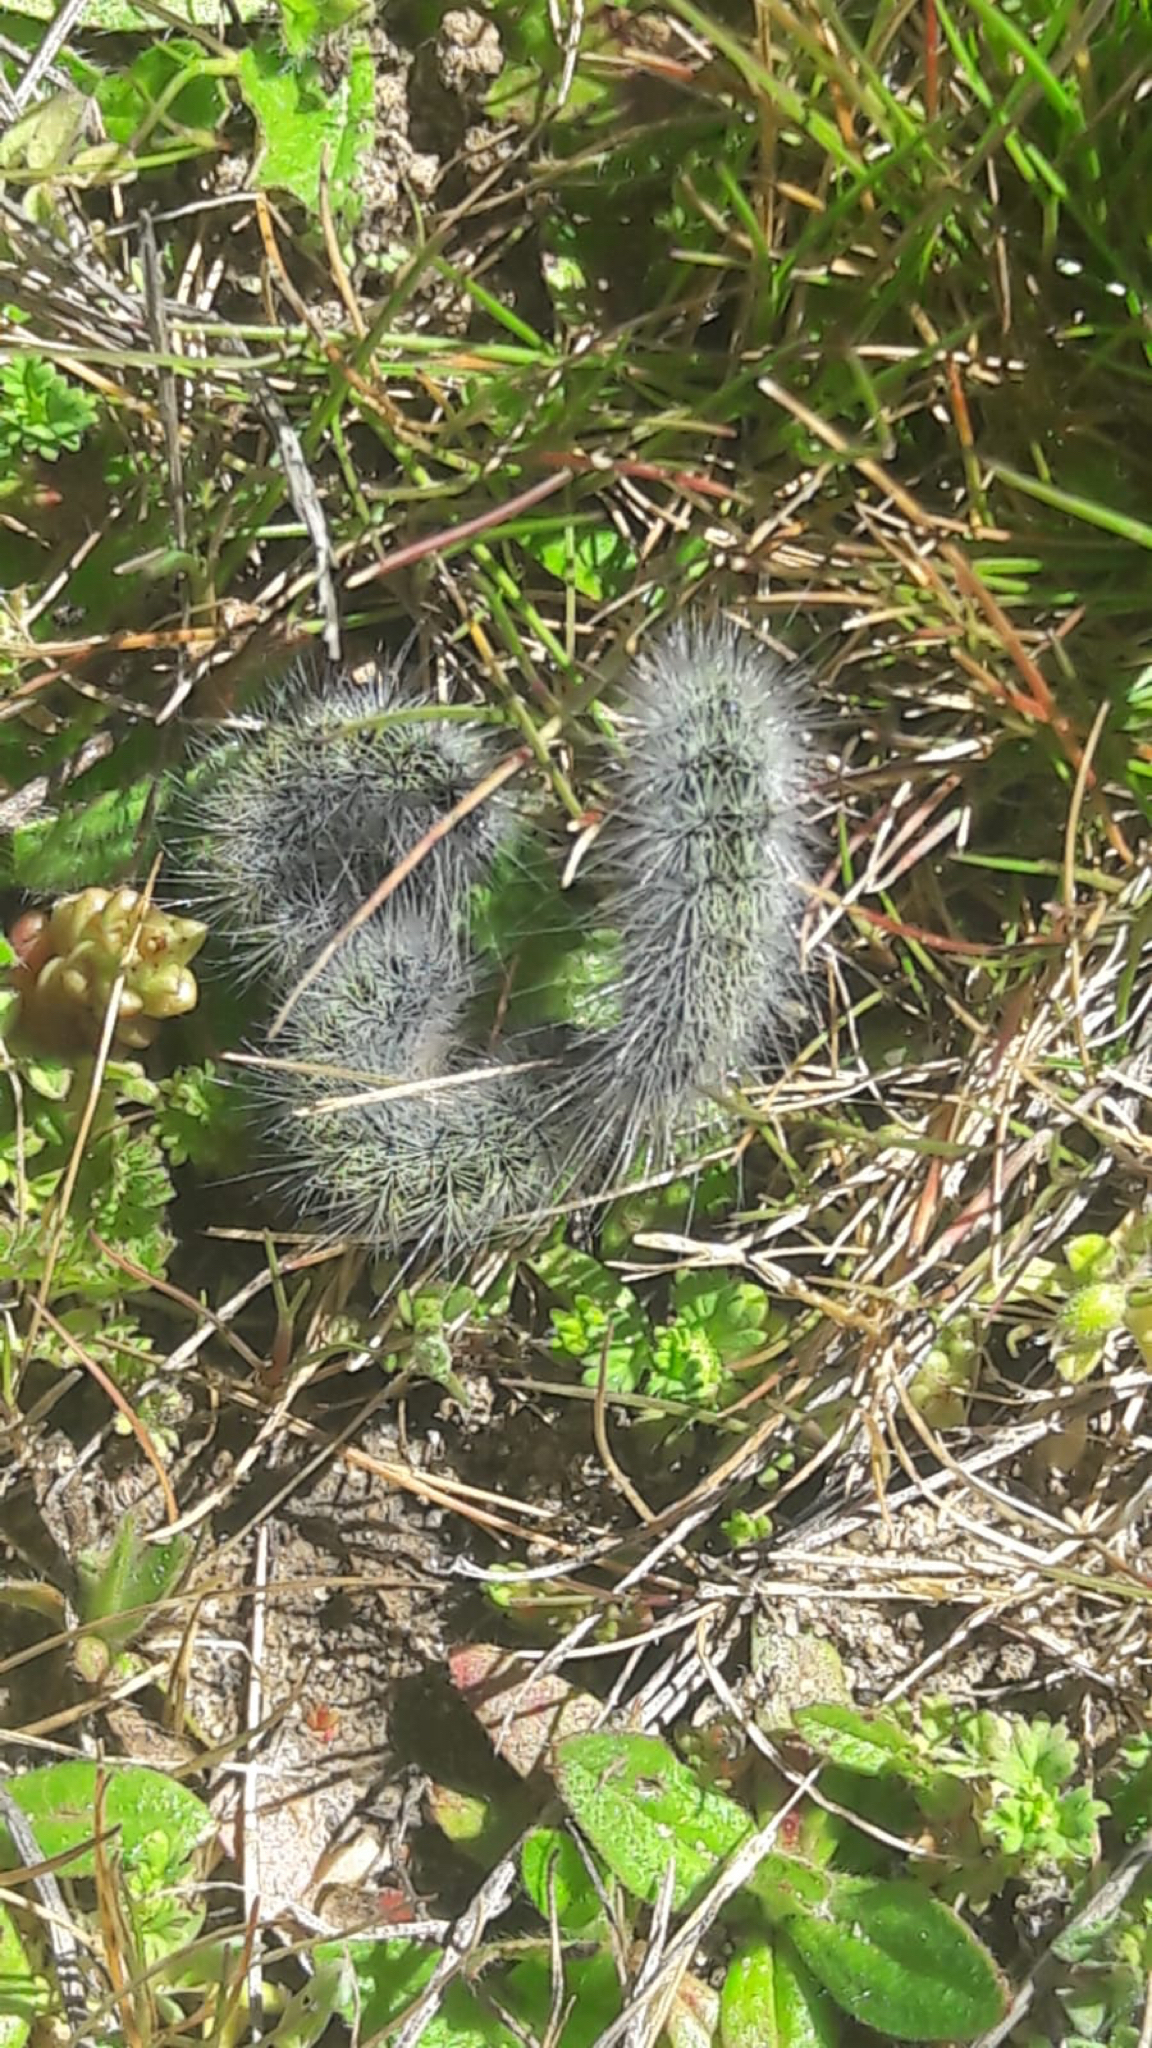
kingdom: Animalia
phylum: Arthropoda
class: Insecta
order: Lepidoptera
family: Notodontidae
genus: Thaumetopoea
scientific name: Thaumetopoea herculeana
